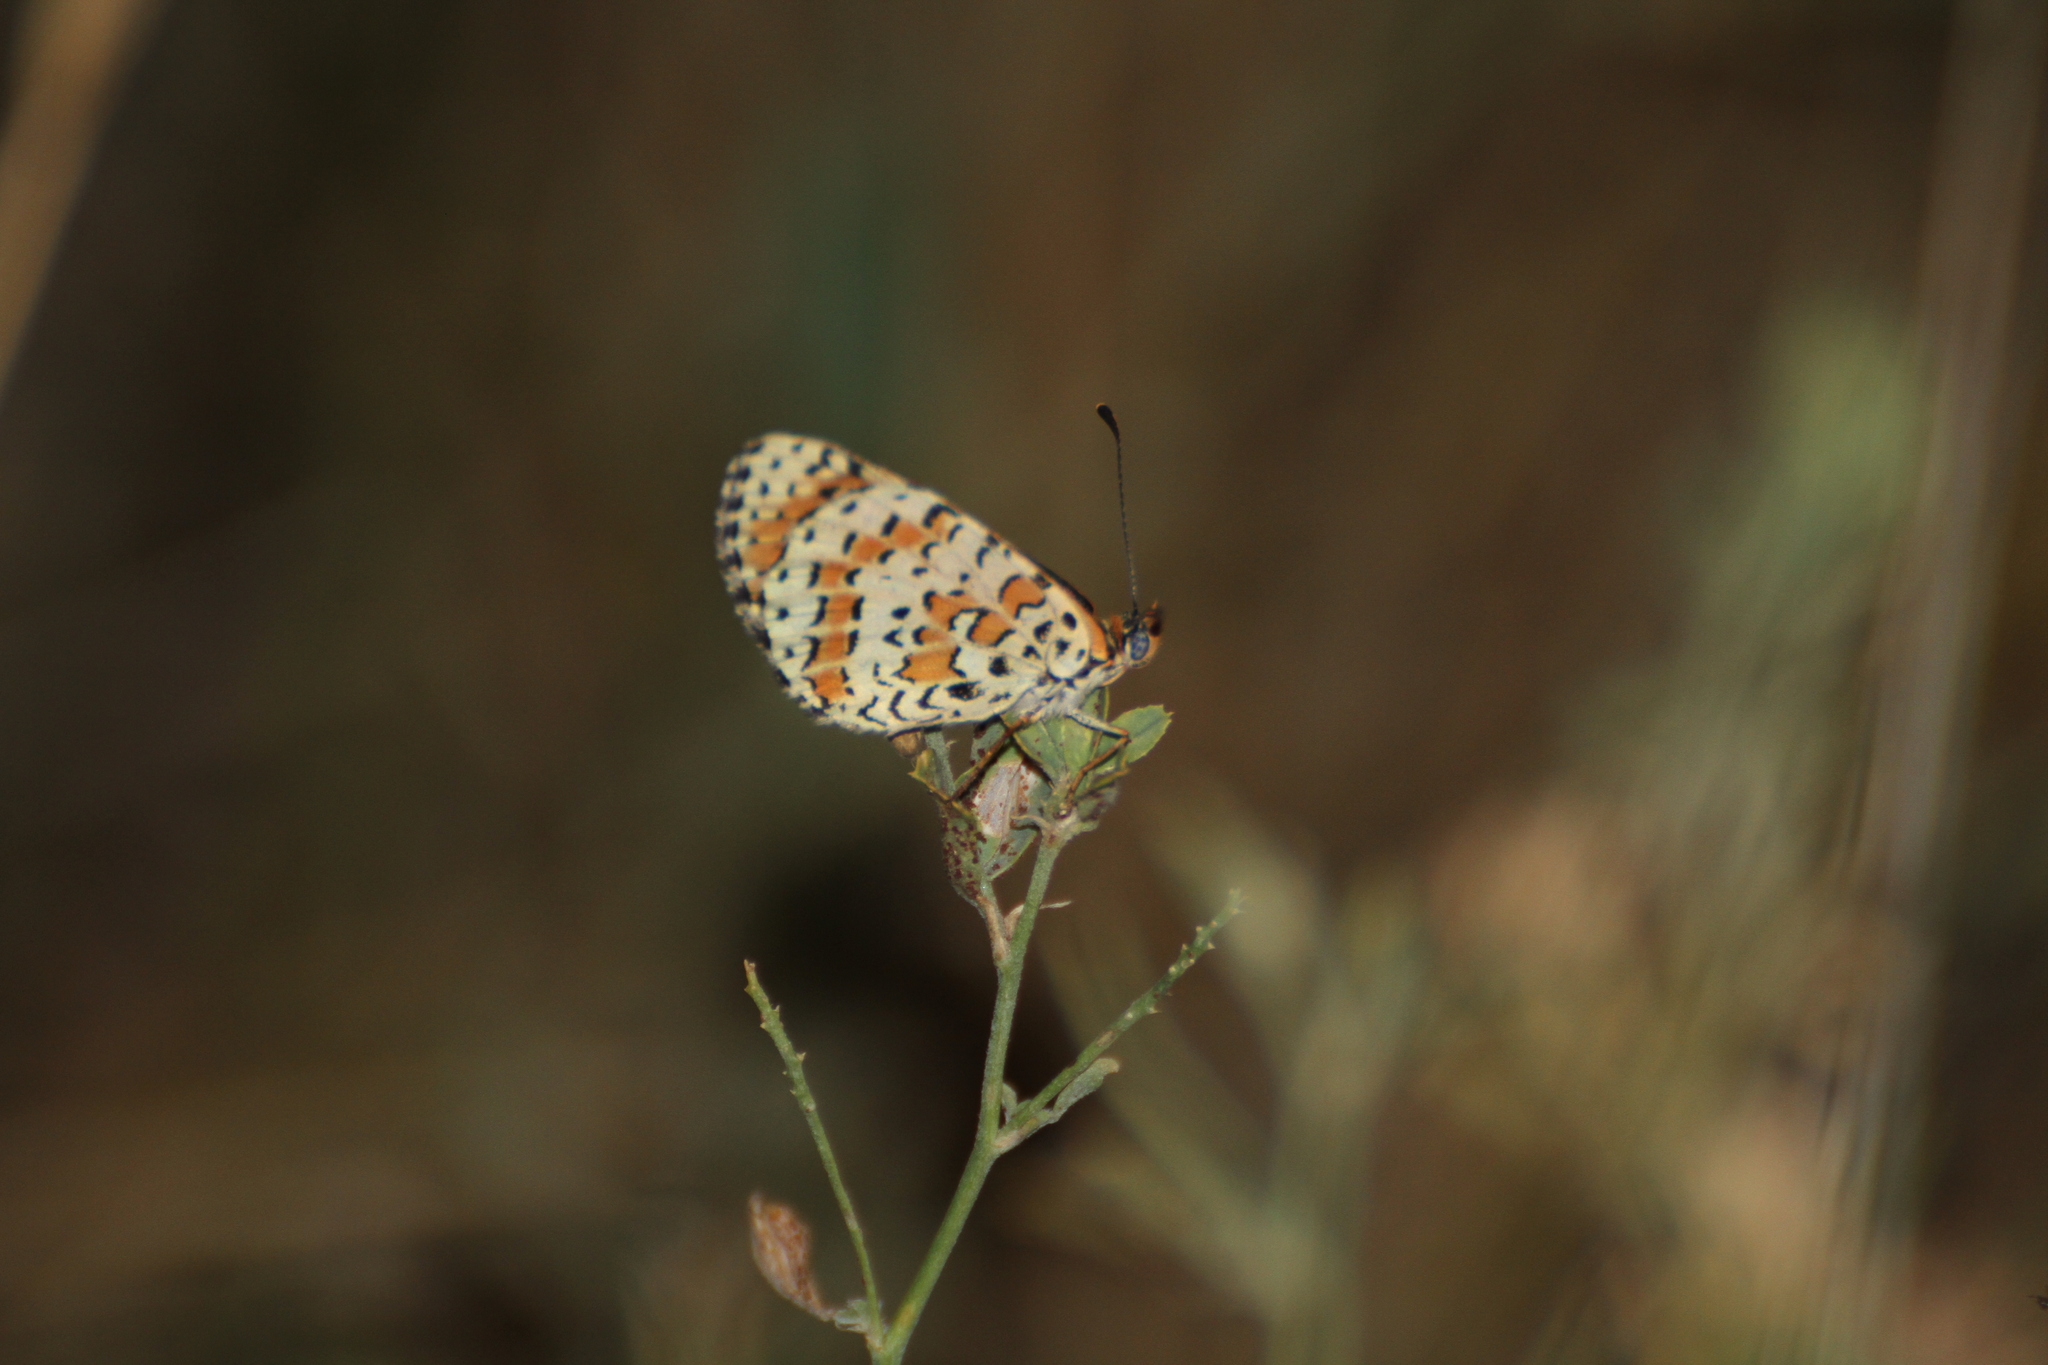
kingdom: Animalia
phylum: Arthropoda
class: Insecta
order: Lepidoptera
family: Nymphalidae
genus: Melitaea
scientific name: Melitaea didyma
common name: Spotted fritillary
